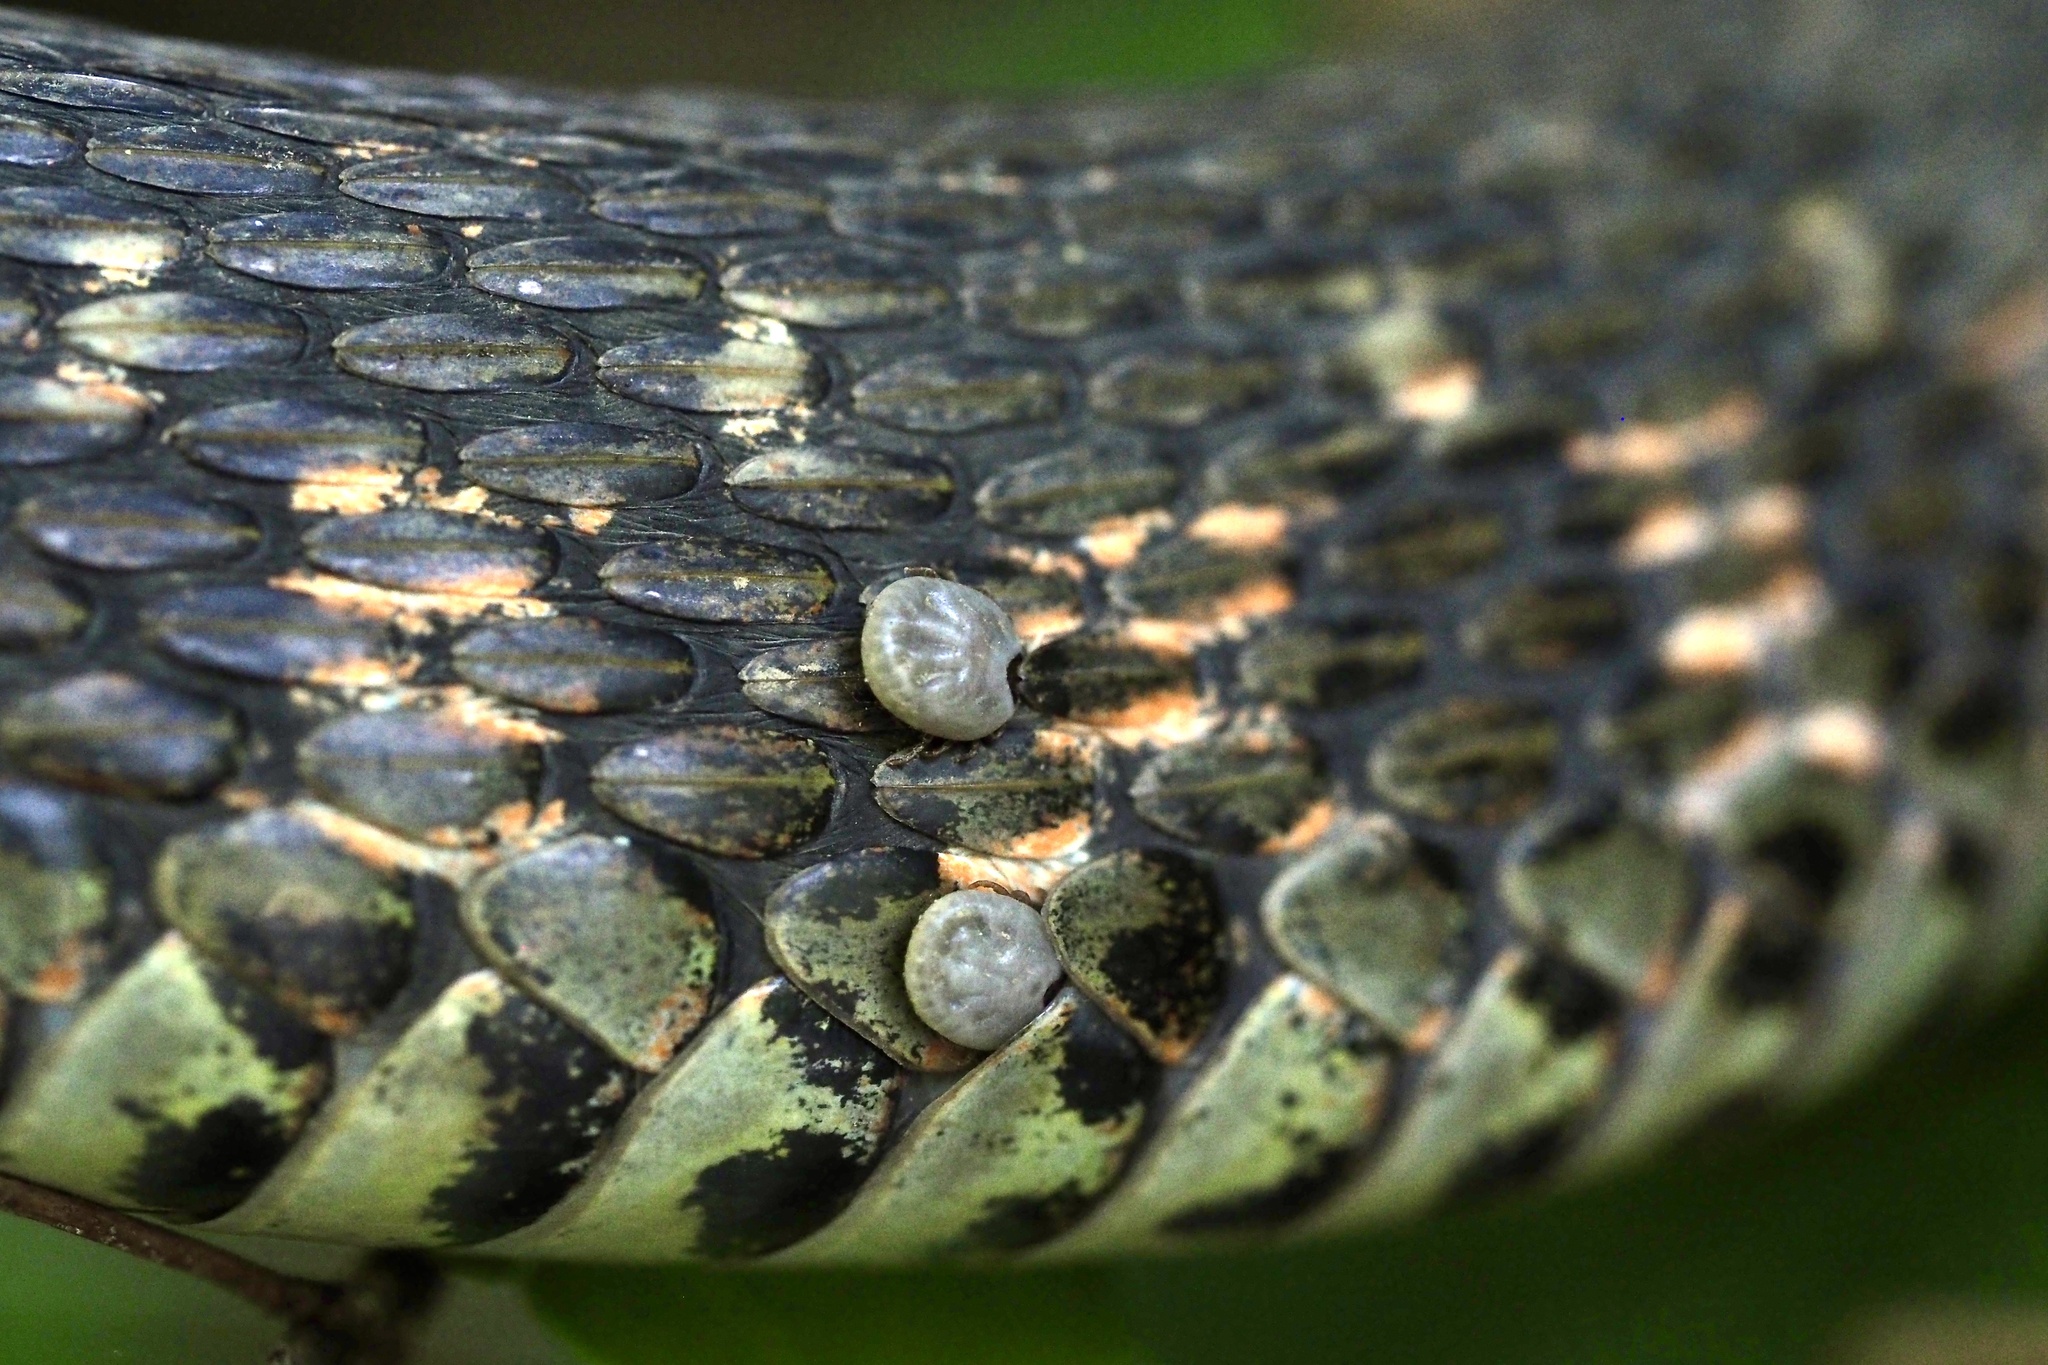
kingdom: Animalia
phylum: Arthropoda
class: Arachnida
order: Ixodida
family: Ixodidae
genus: Amblyomma
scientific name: Amblyomma testudinarium
